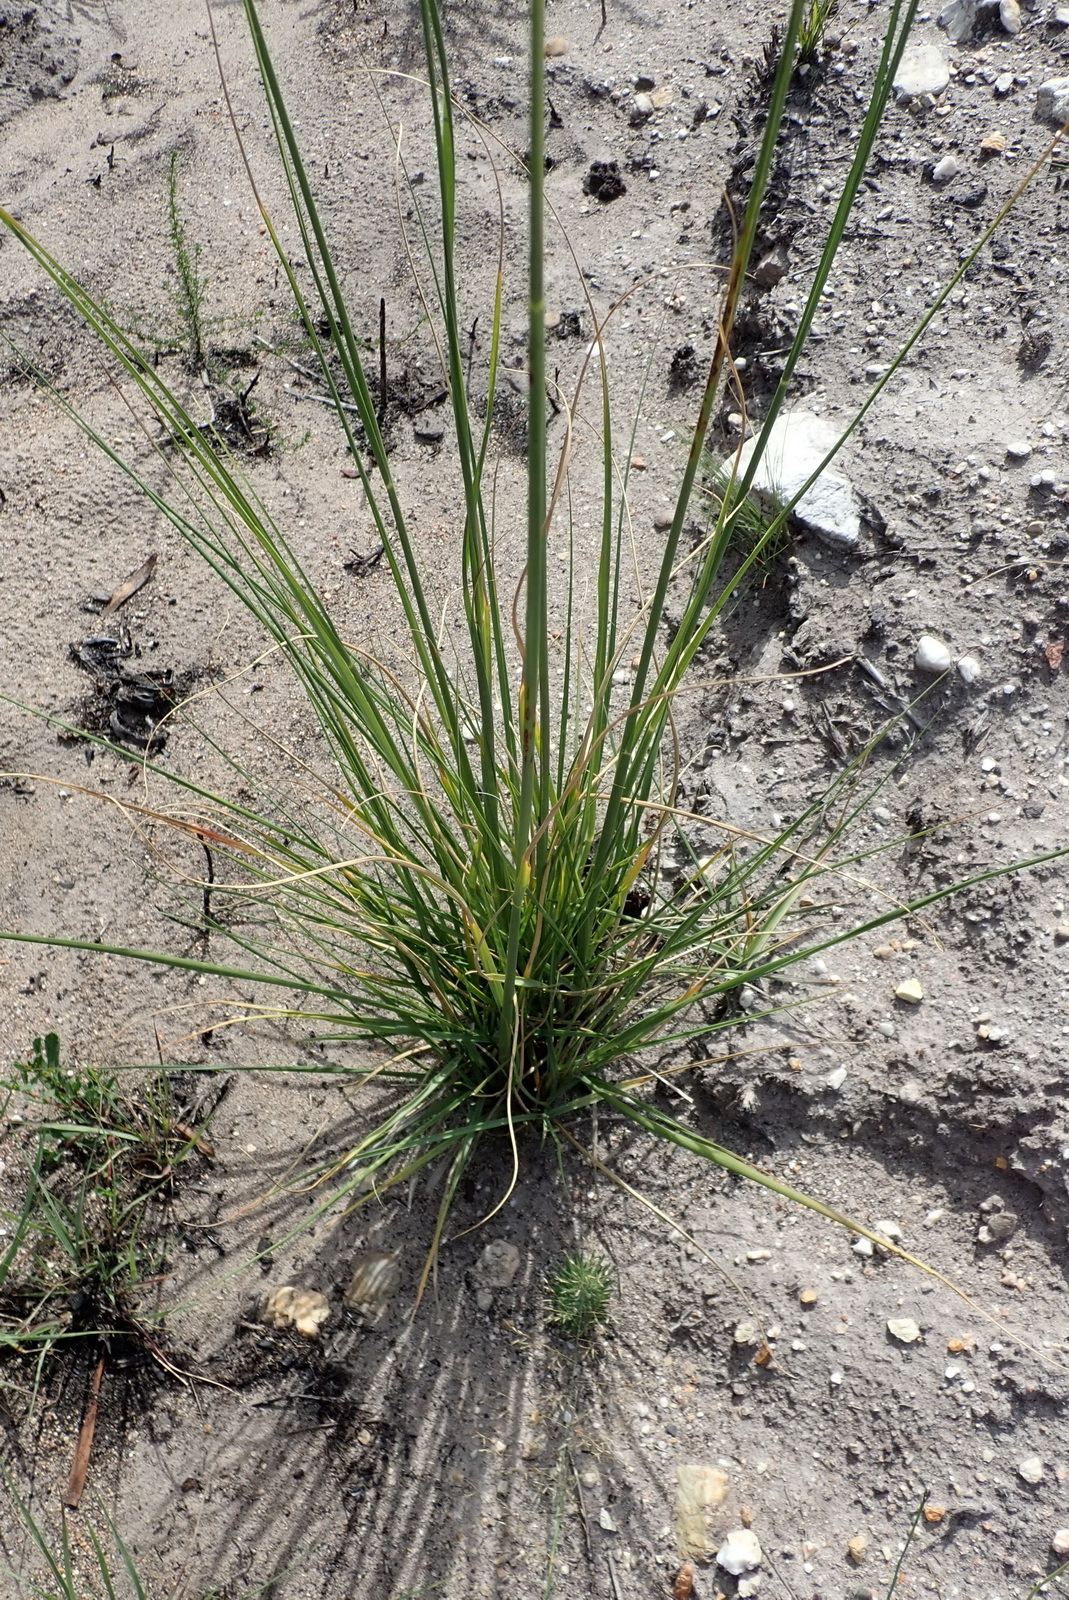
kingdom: Plantae
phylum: Tracheophyta
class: Liliopsida
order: Poales
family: Poaceae
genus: Cenchrus
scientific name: Cenchrus caudatus
